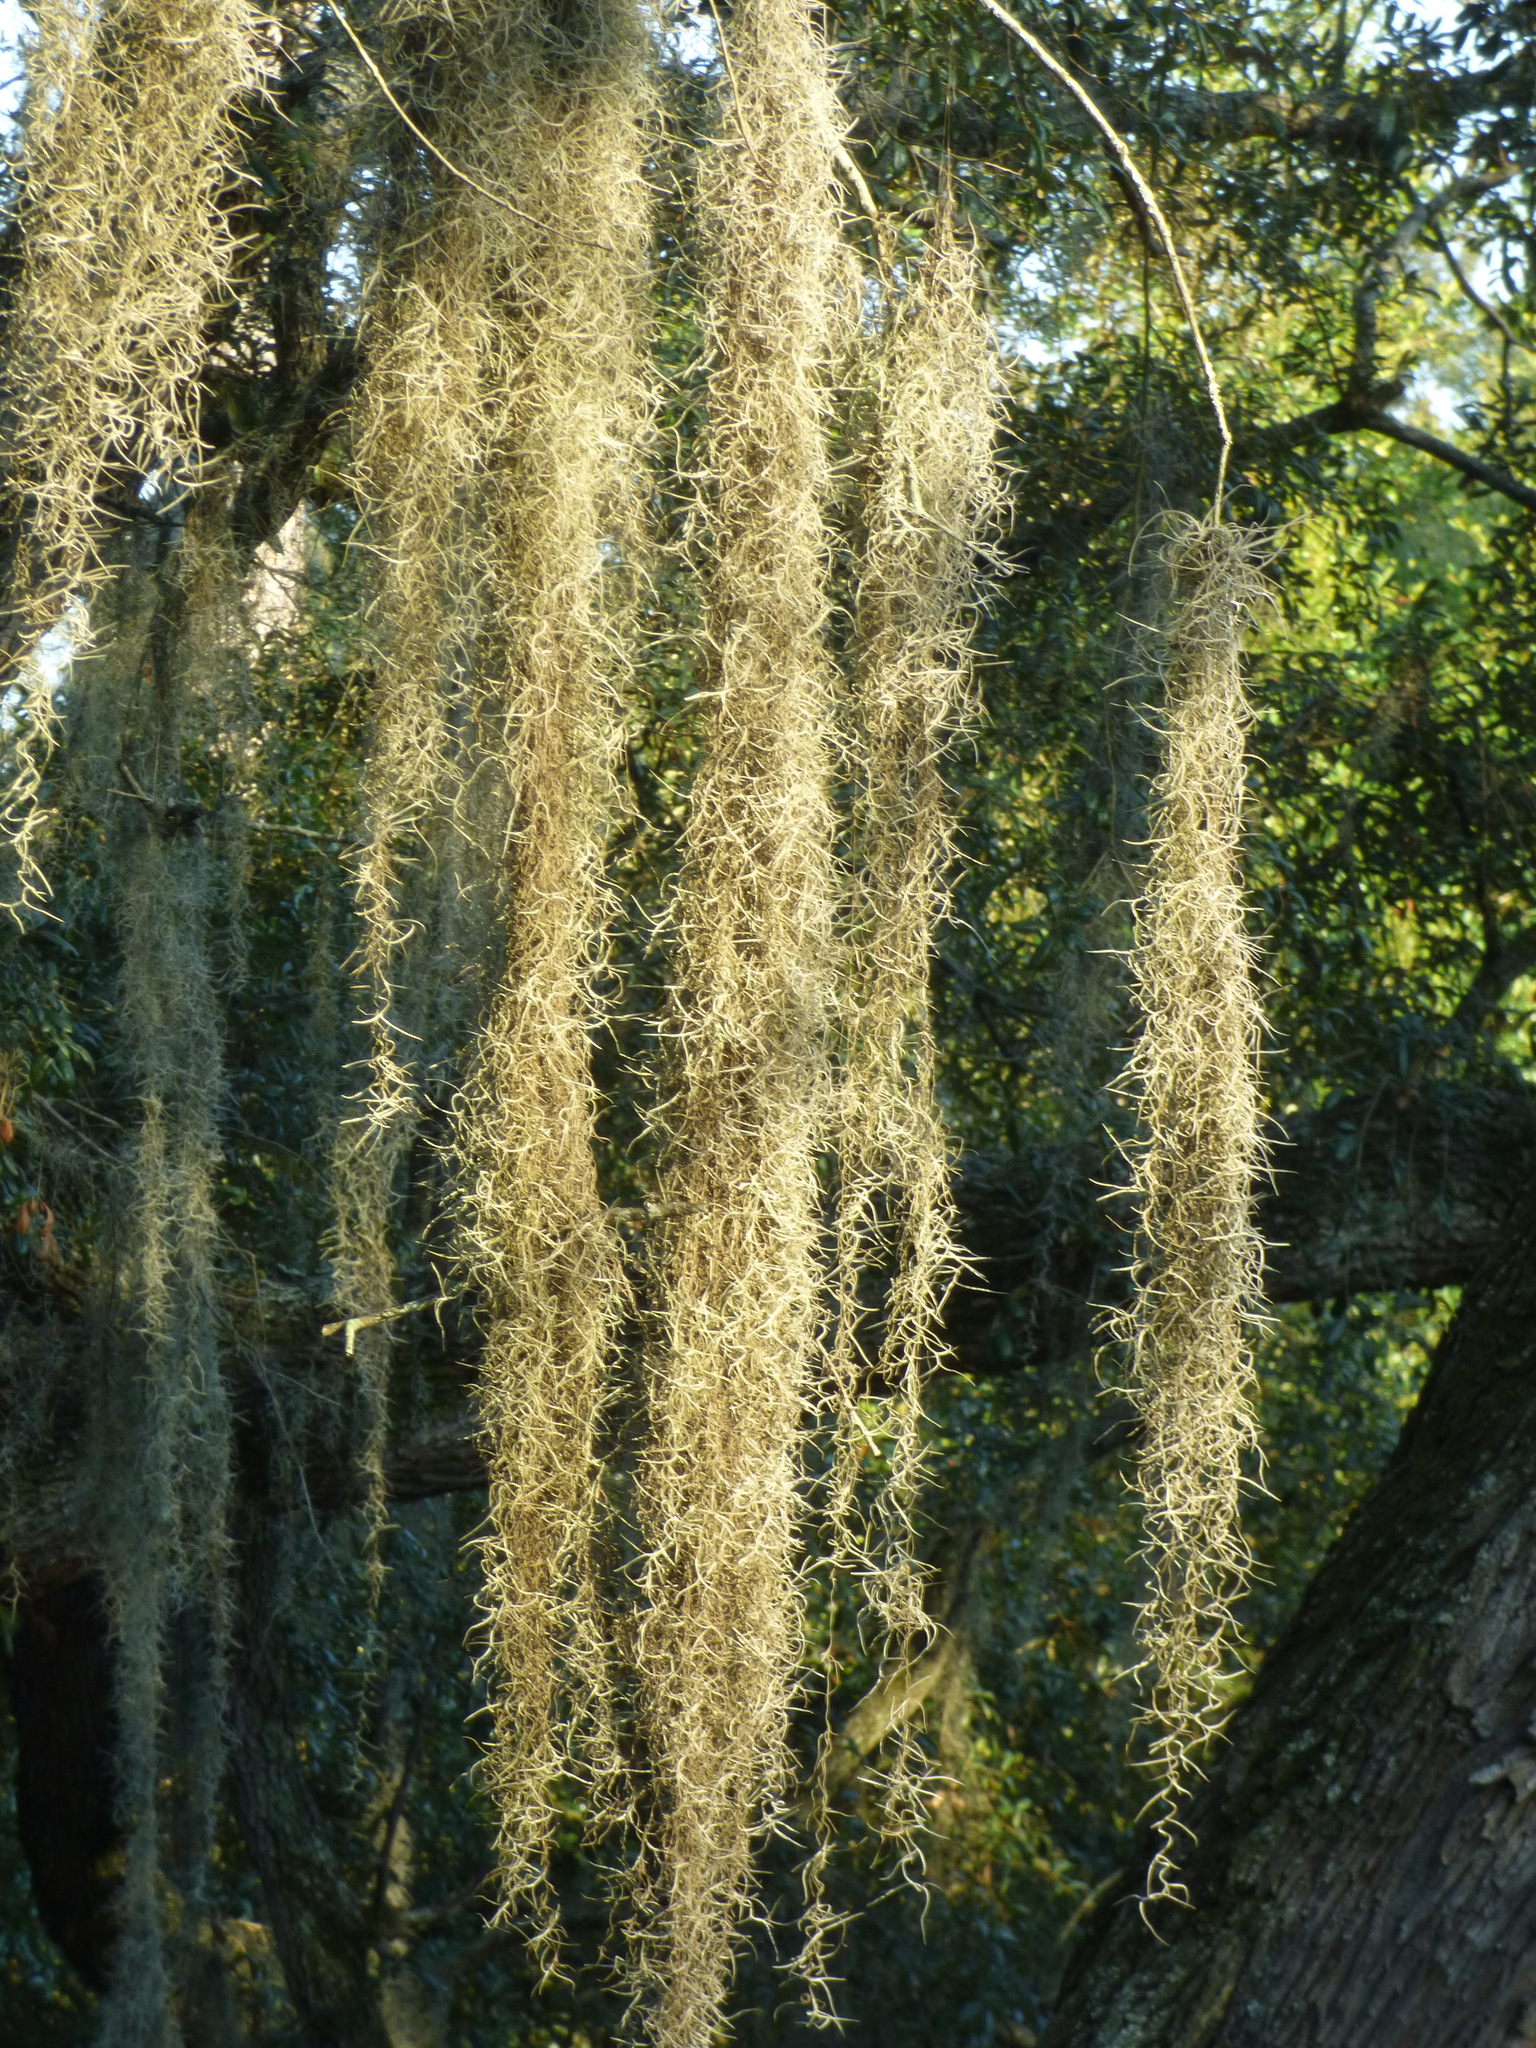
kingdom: Plantae
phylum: Tracheophyta
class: Liliopsida
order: Poales
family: Bromeliaceae
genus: Tillandsia
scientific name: Tillandsia usneoides
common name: Spanish moss
